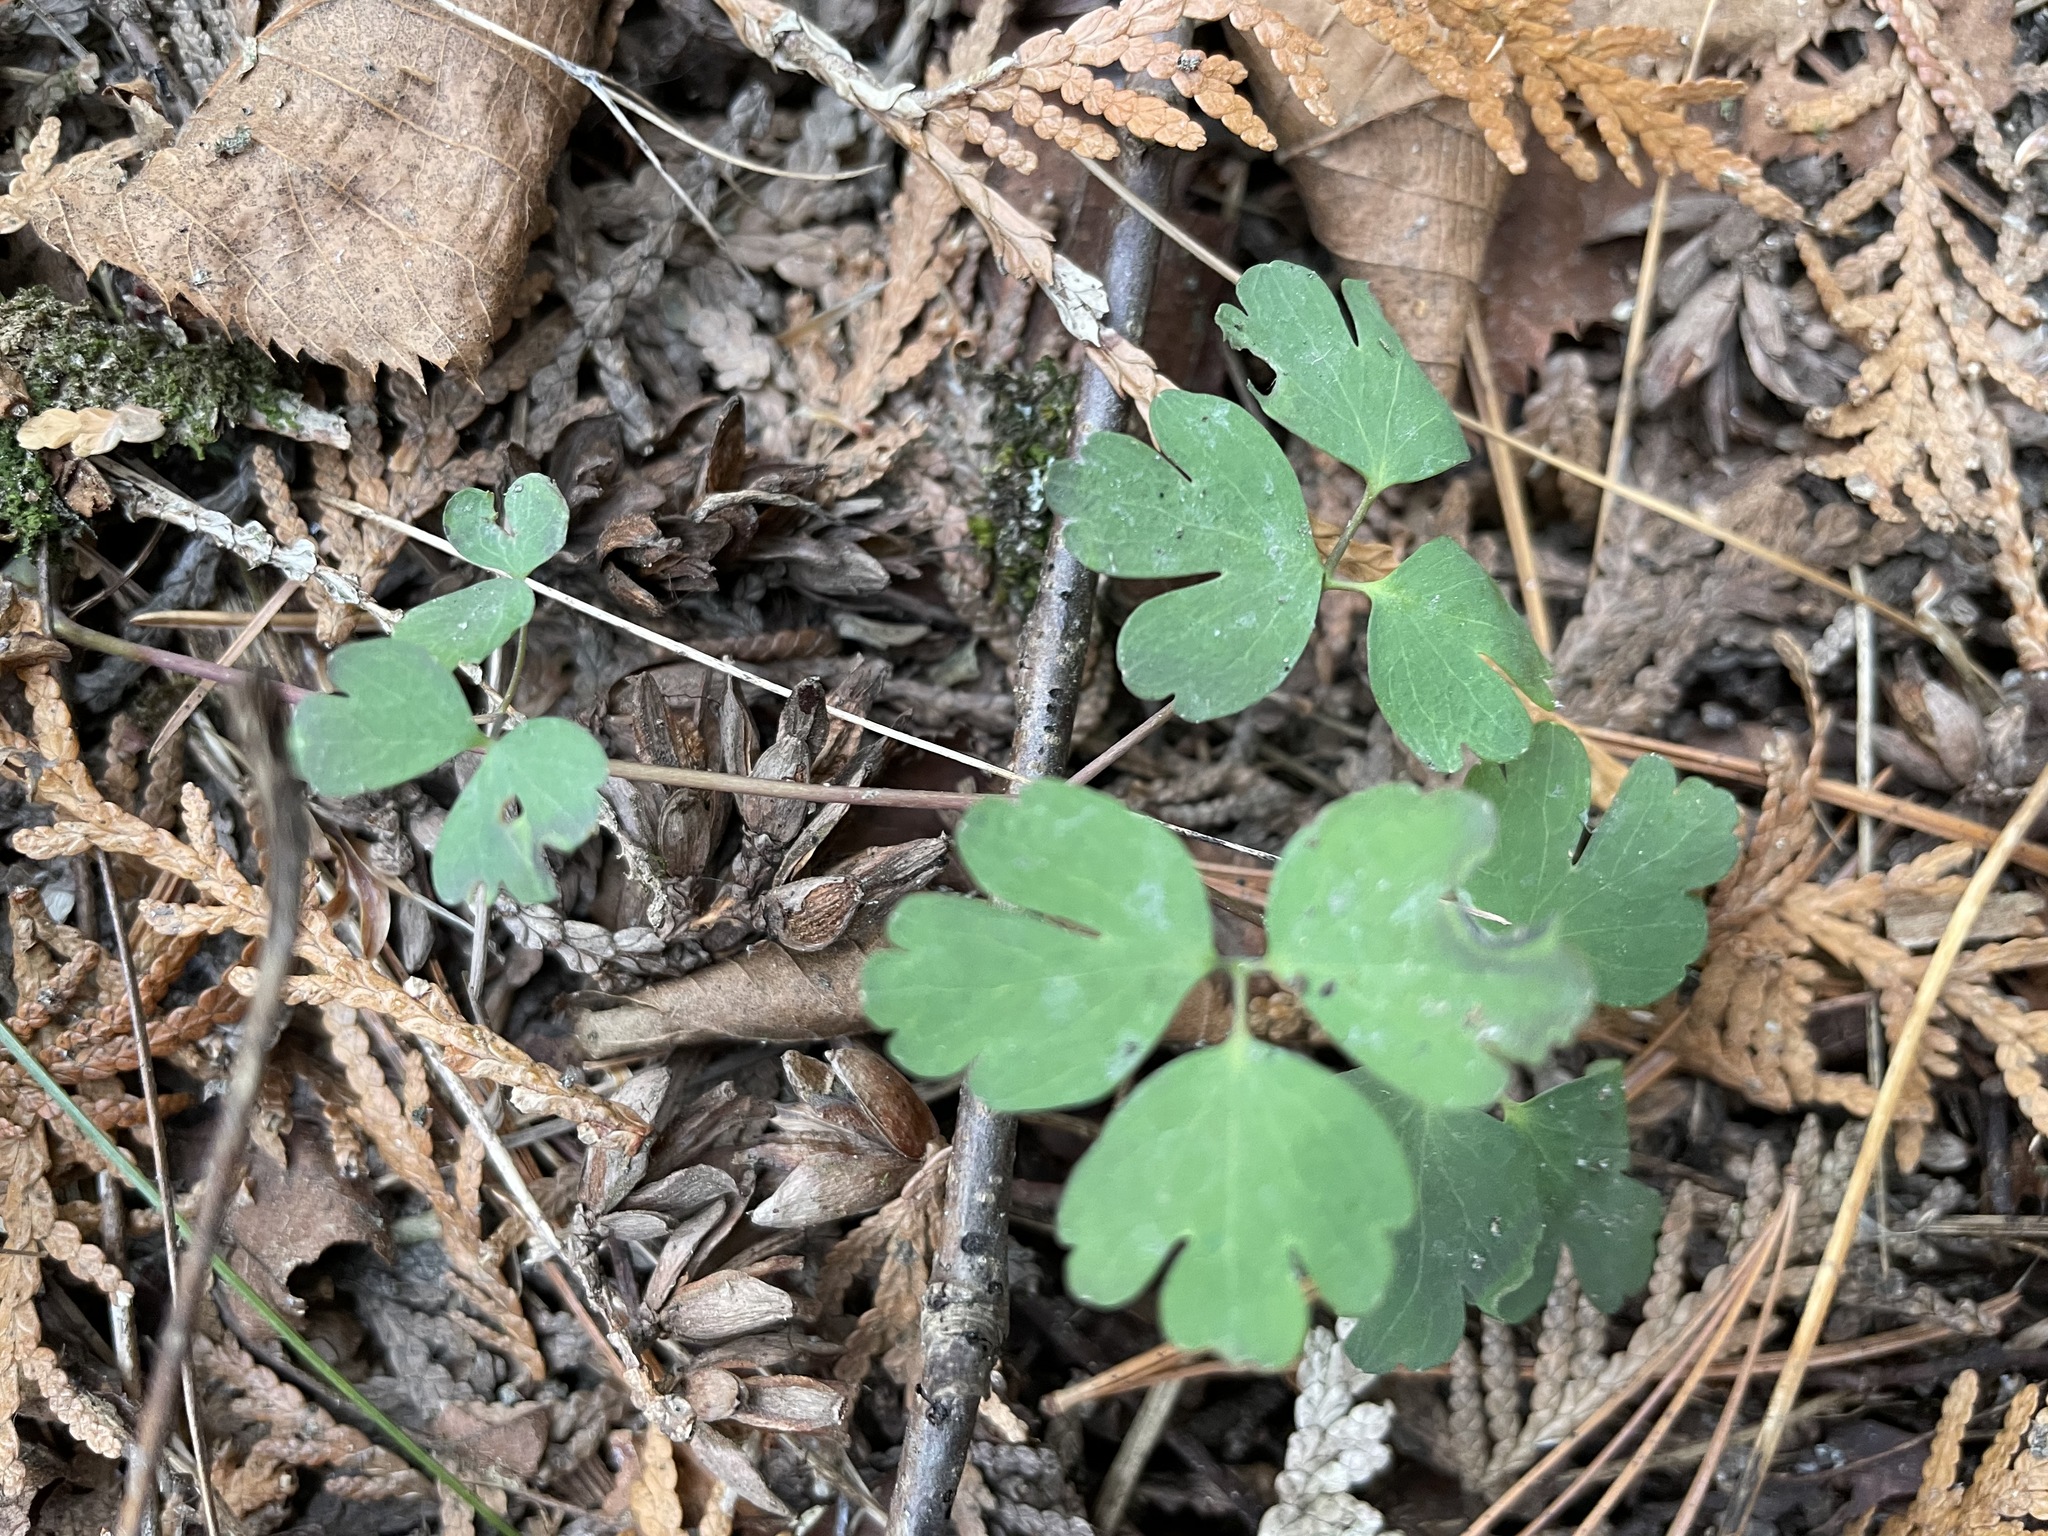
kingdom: Plantae
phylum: Tracheophyta
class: Magnoliopsida
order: Ranunculales
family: Ranunculaceae
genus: Aquilegia
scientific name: Aquilegia canadensis
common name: American columbine
